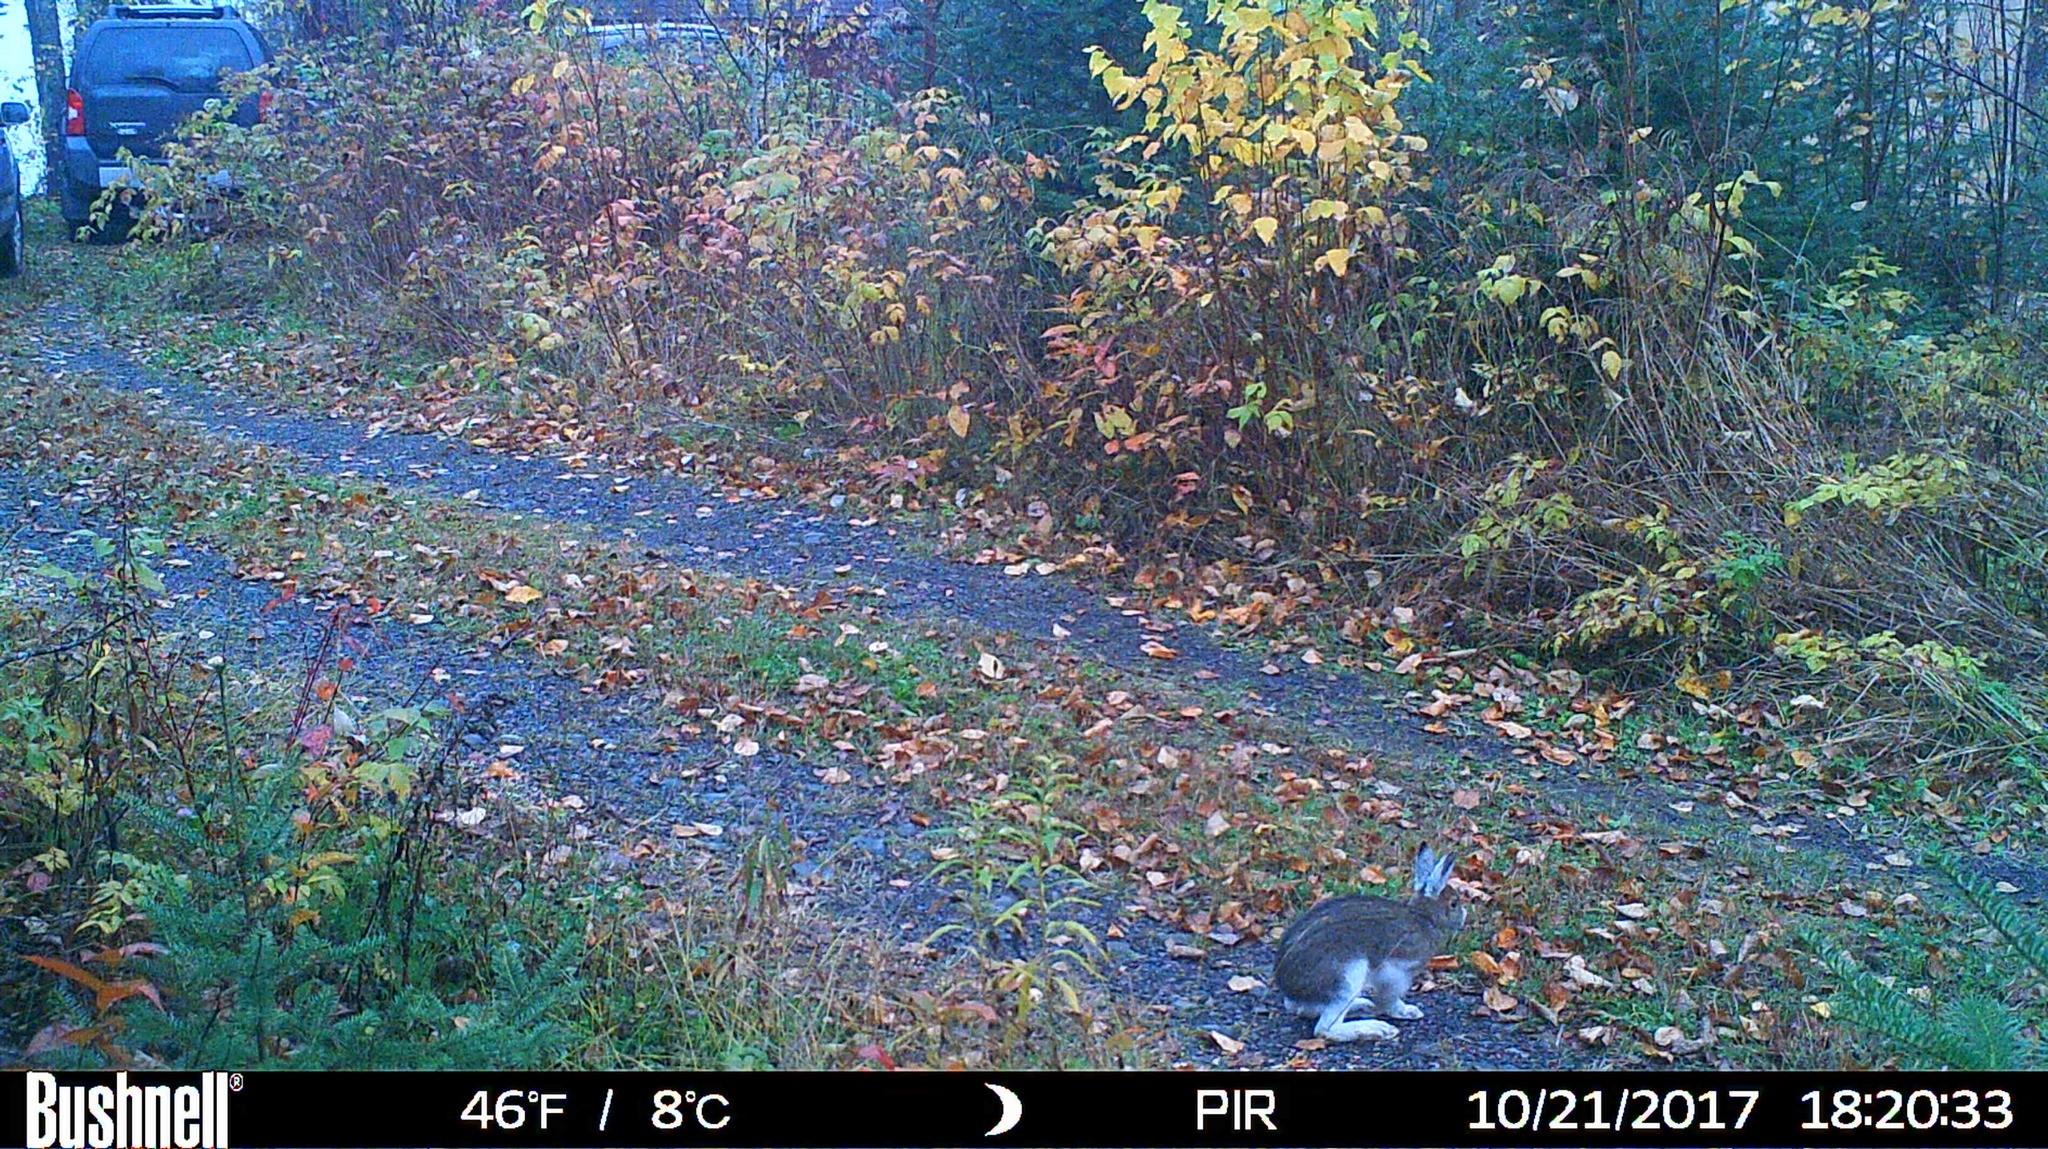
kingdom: Animalia
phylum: Chordata
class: Mammalia
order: Lagomorpha
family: Leporidae
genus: Lepus
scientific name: Lepus americanus
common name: Snowshoe hare
